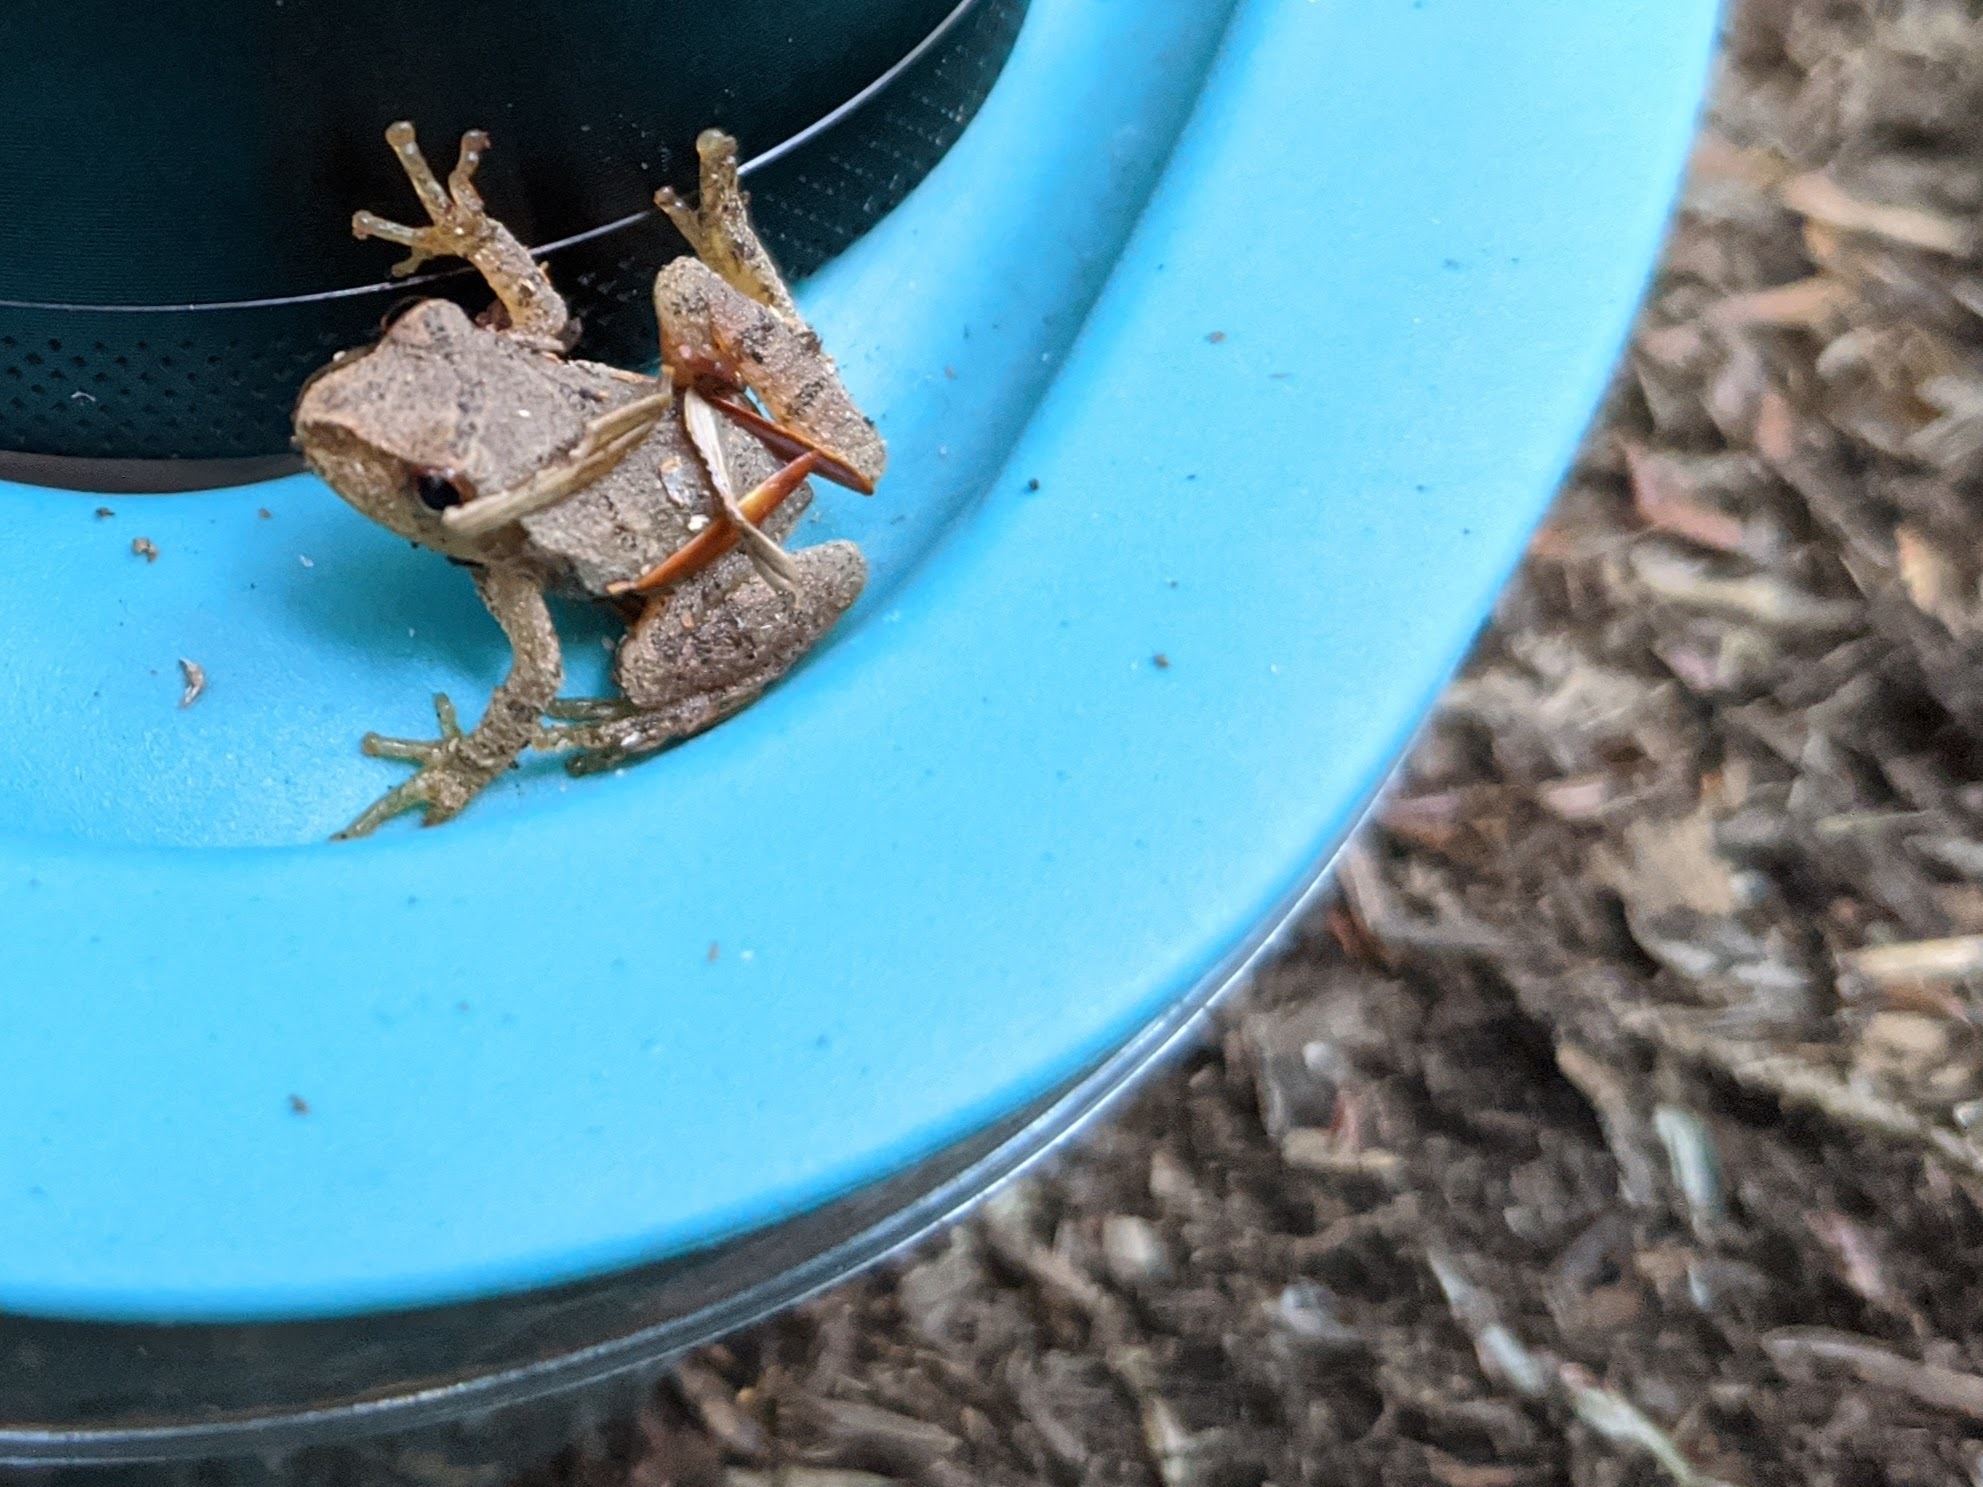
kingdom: Animalia
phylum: Chordata
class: Amphibia
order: Anura
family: Hylidae
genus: Pseudacris
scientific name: Pseudacris crucifer
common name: Spring peeper
